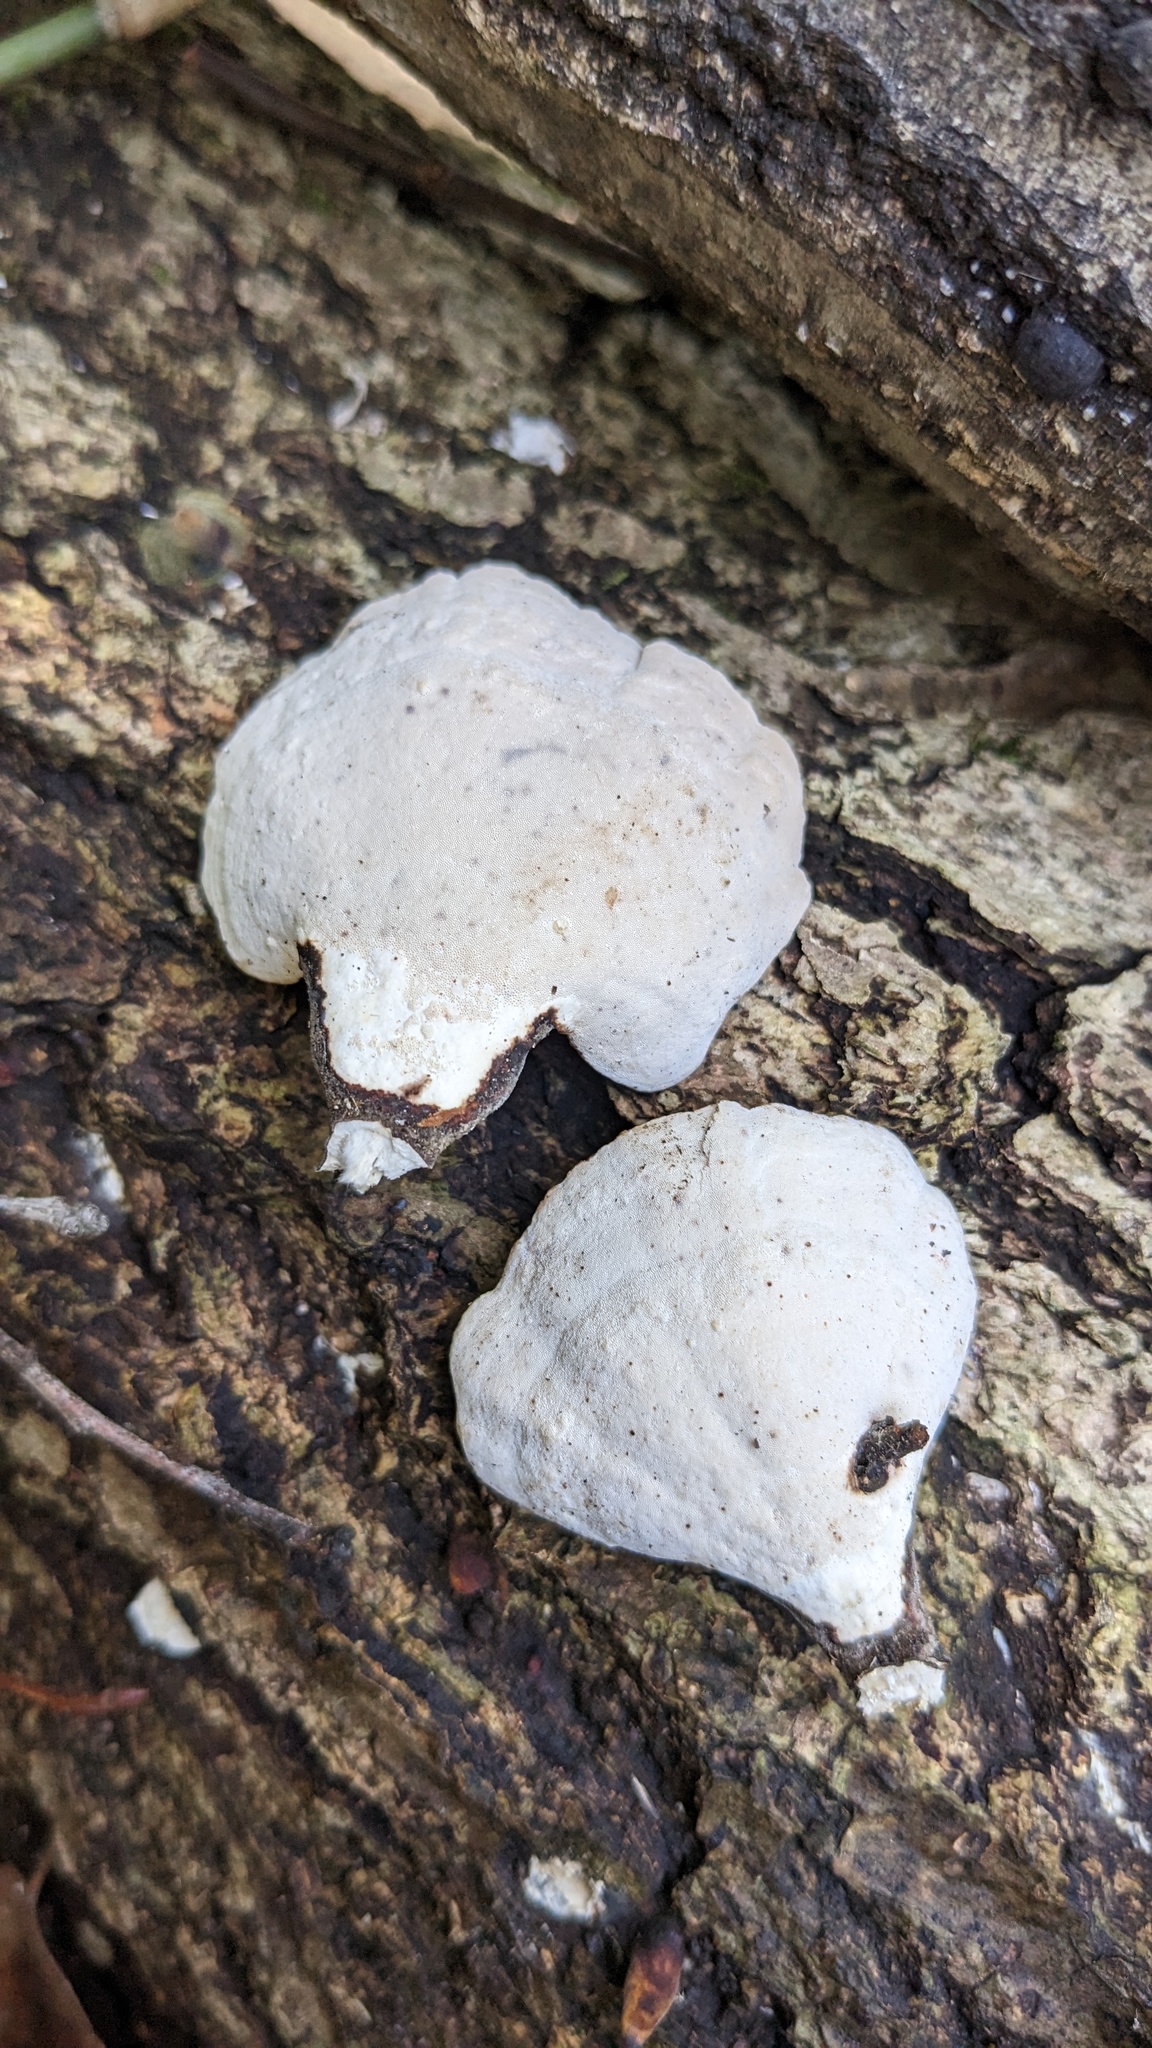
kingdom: Fungi
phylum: Basidiomycota
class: Agaricomycetes
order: Polyporales
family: Polyporaceae
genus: Microporus
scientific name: Microporus affinis
